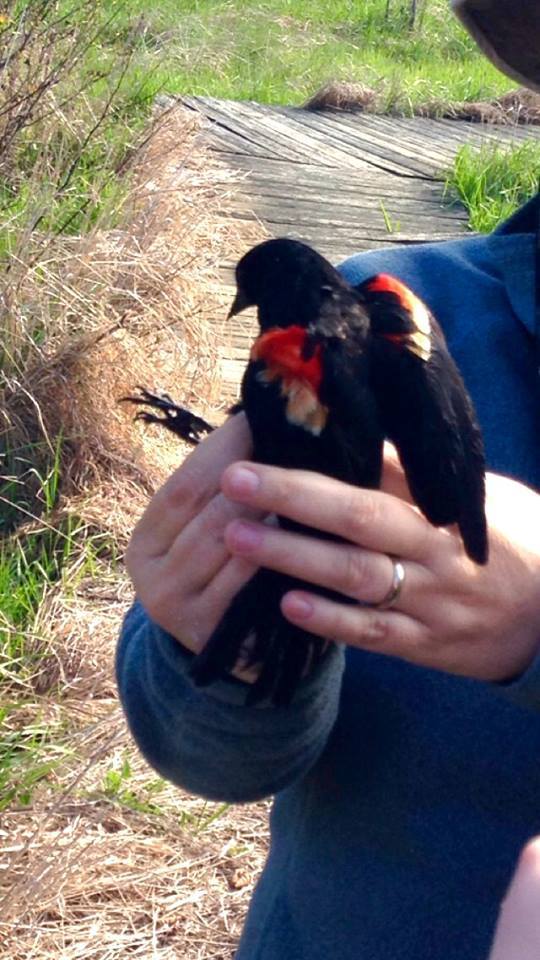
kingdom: Animalia
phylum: Chordata
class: Aves
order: Passeriformes
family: Icteridae
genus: Agelaius
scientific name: Agelaius phoeniceus
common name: Red-winged blackbird
